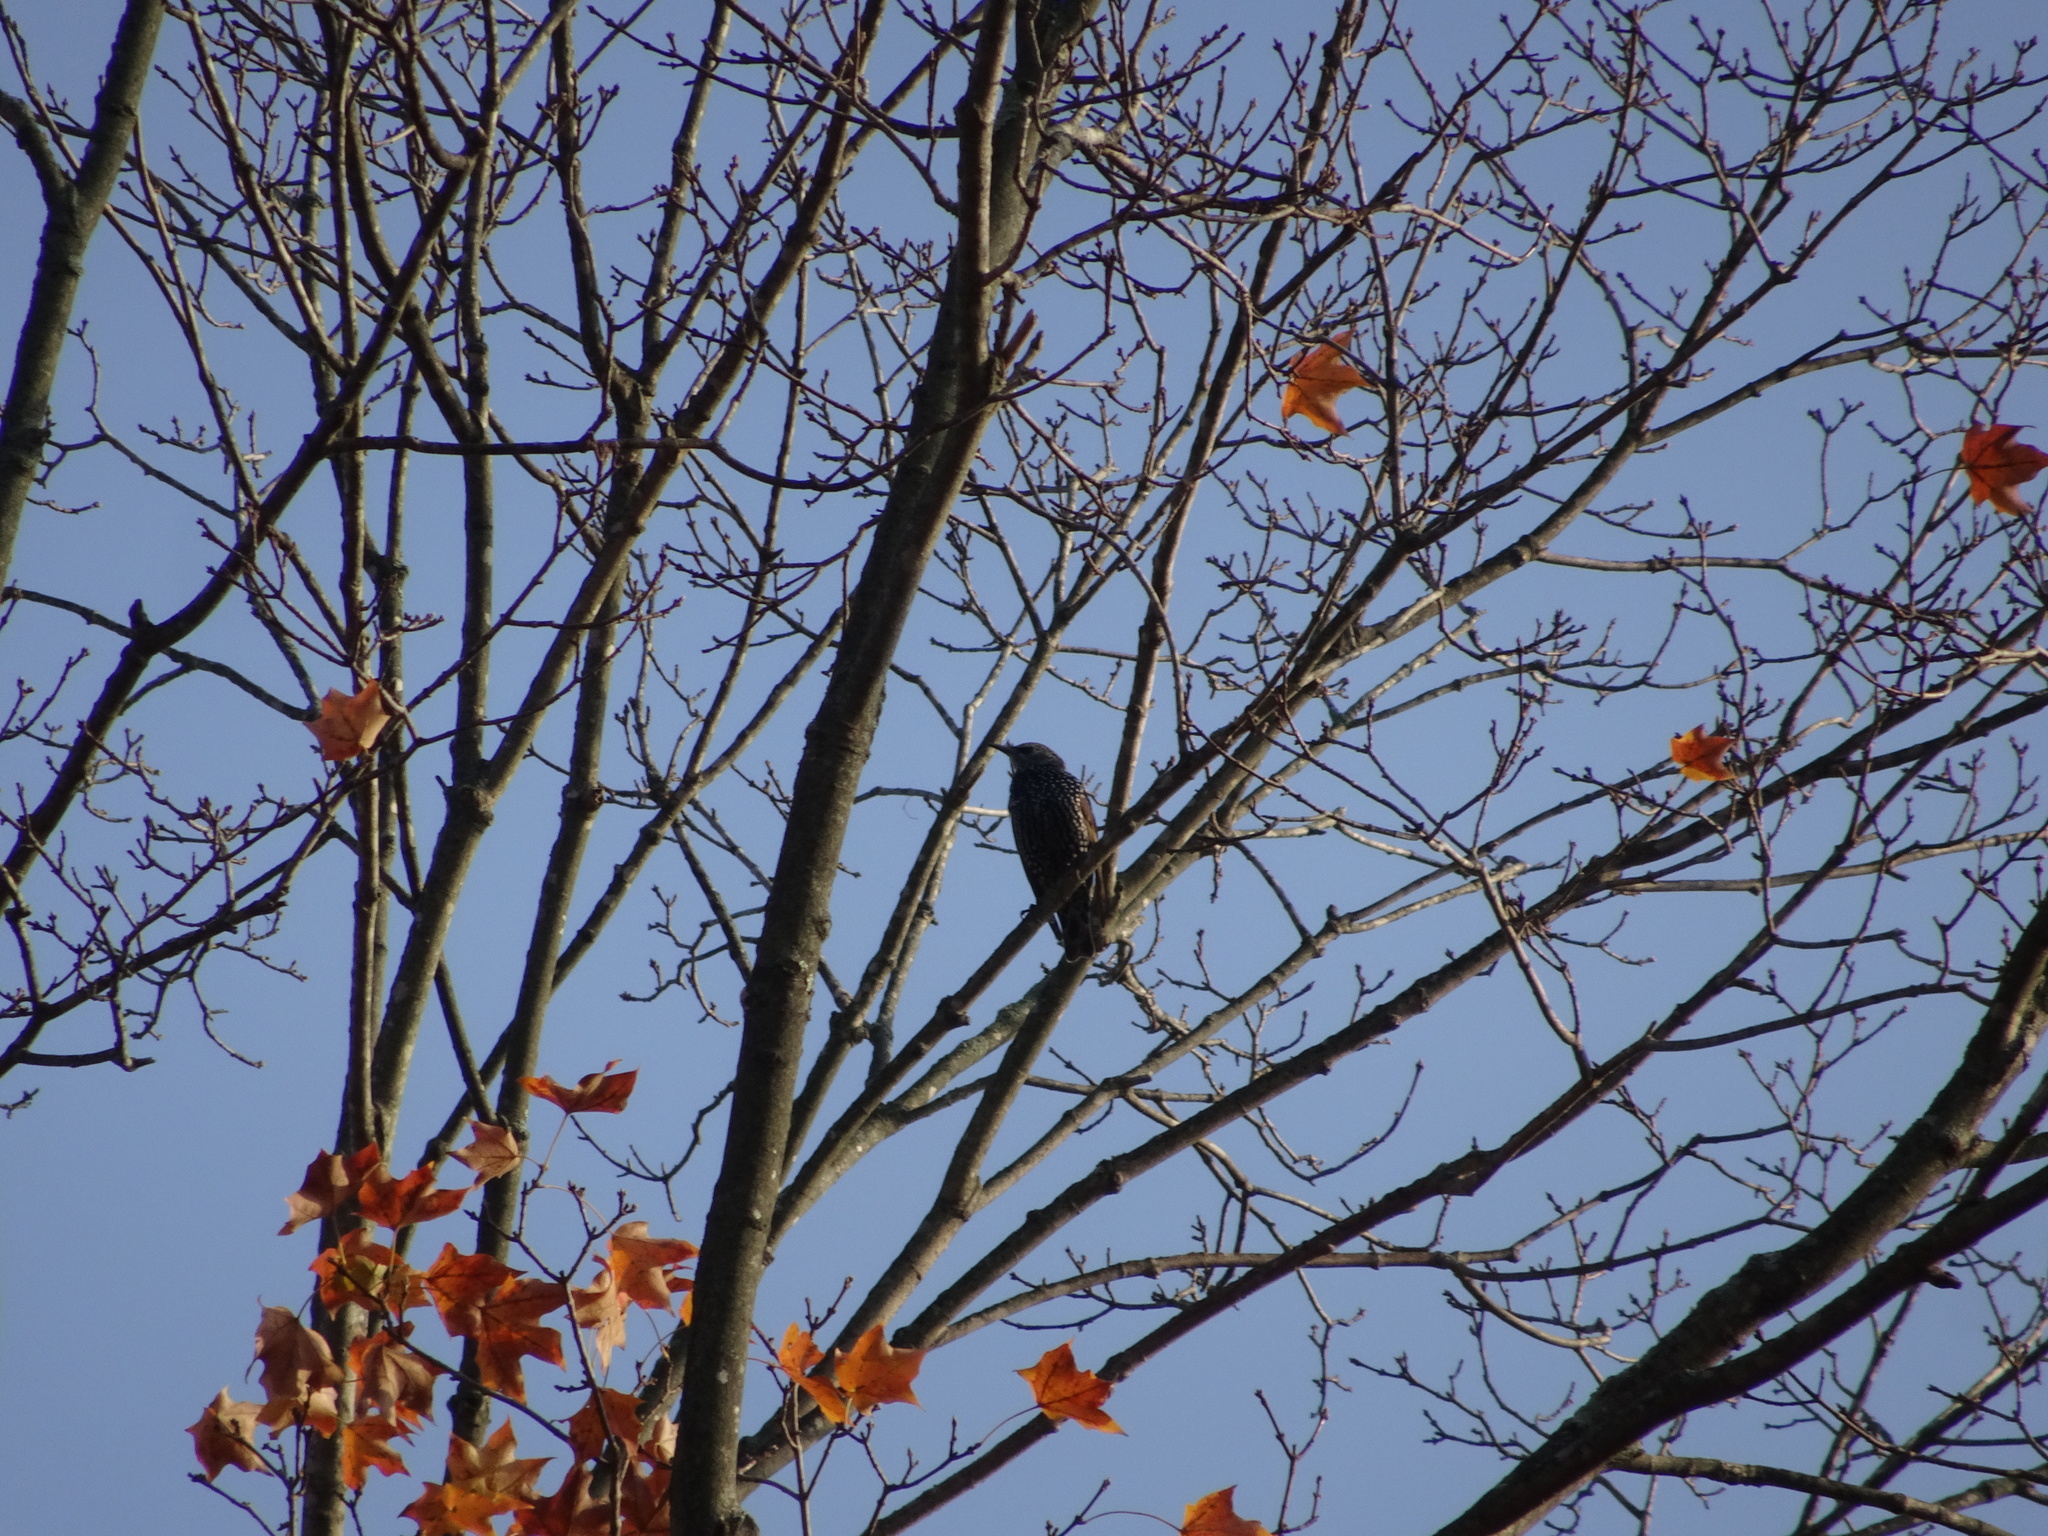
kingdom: Animalia
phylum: Chordata
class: Aves
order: Passeriformes
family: Sturnidae
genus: Sturnus
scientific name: Sturnus vulgaris
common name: Common starling
